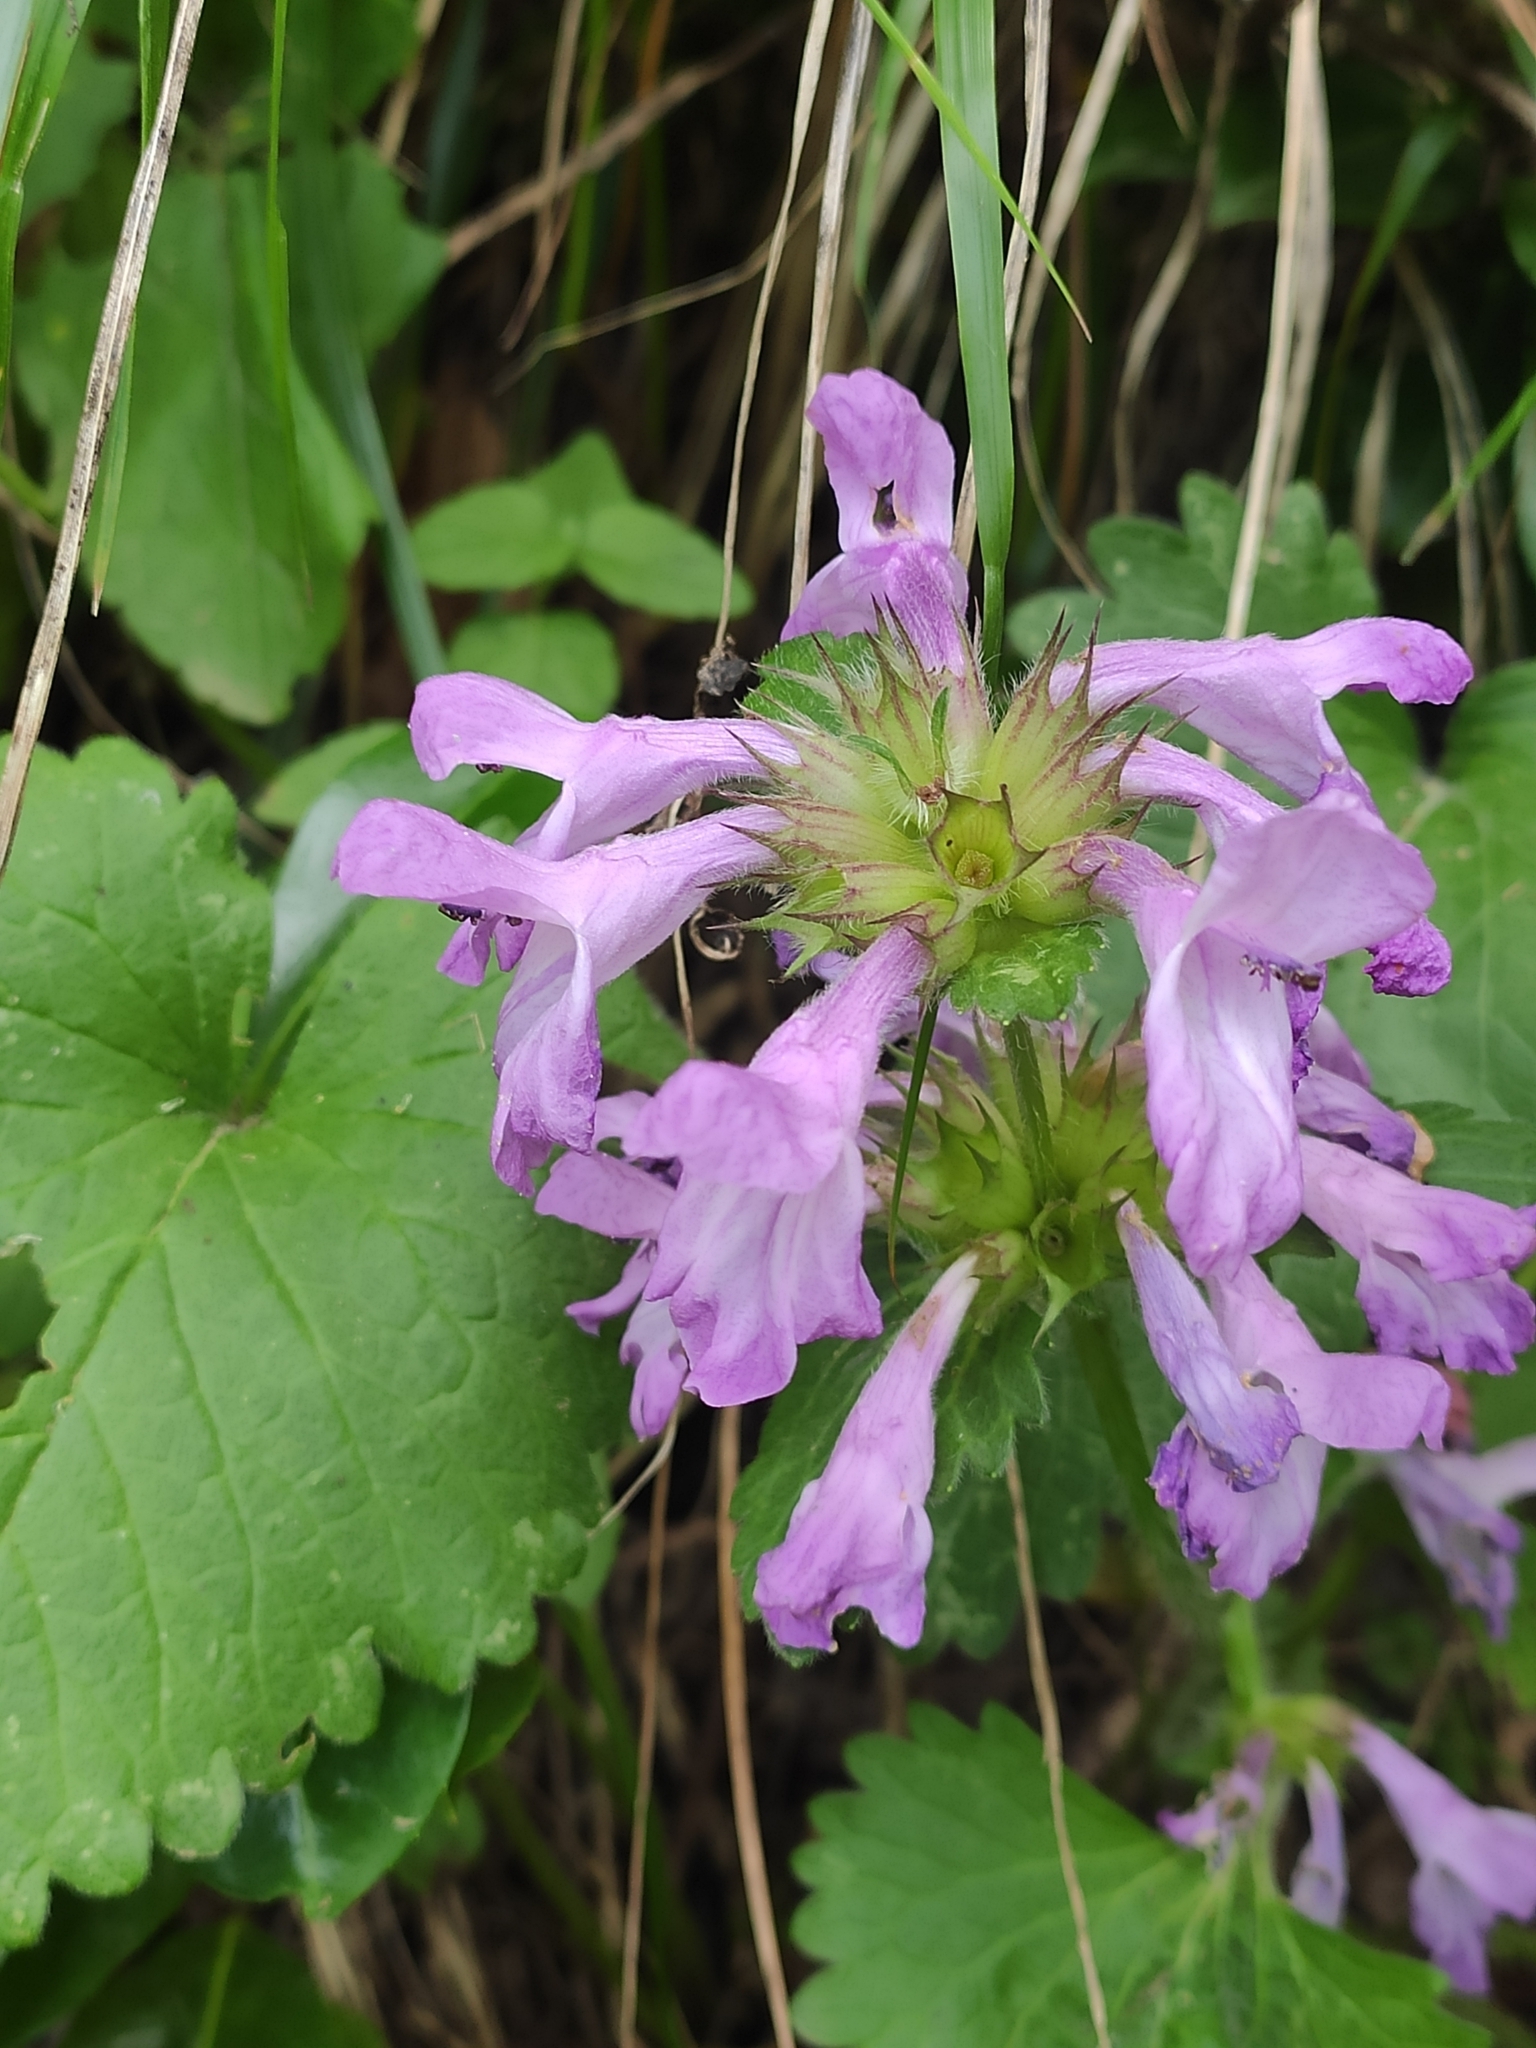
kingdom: Plantae
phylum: Tracheophyta
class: Magnoliopsida
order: Lamiales
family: Lamiaceae
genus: Betonica
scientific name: Betonica macrantha
